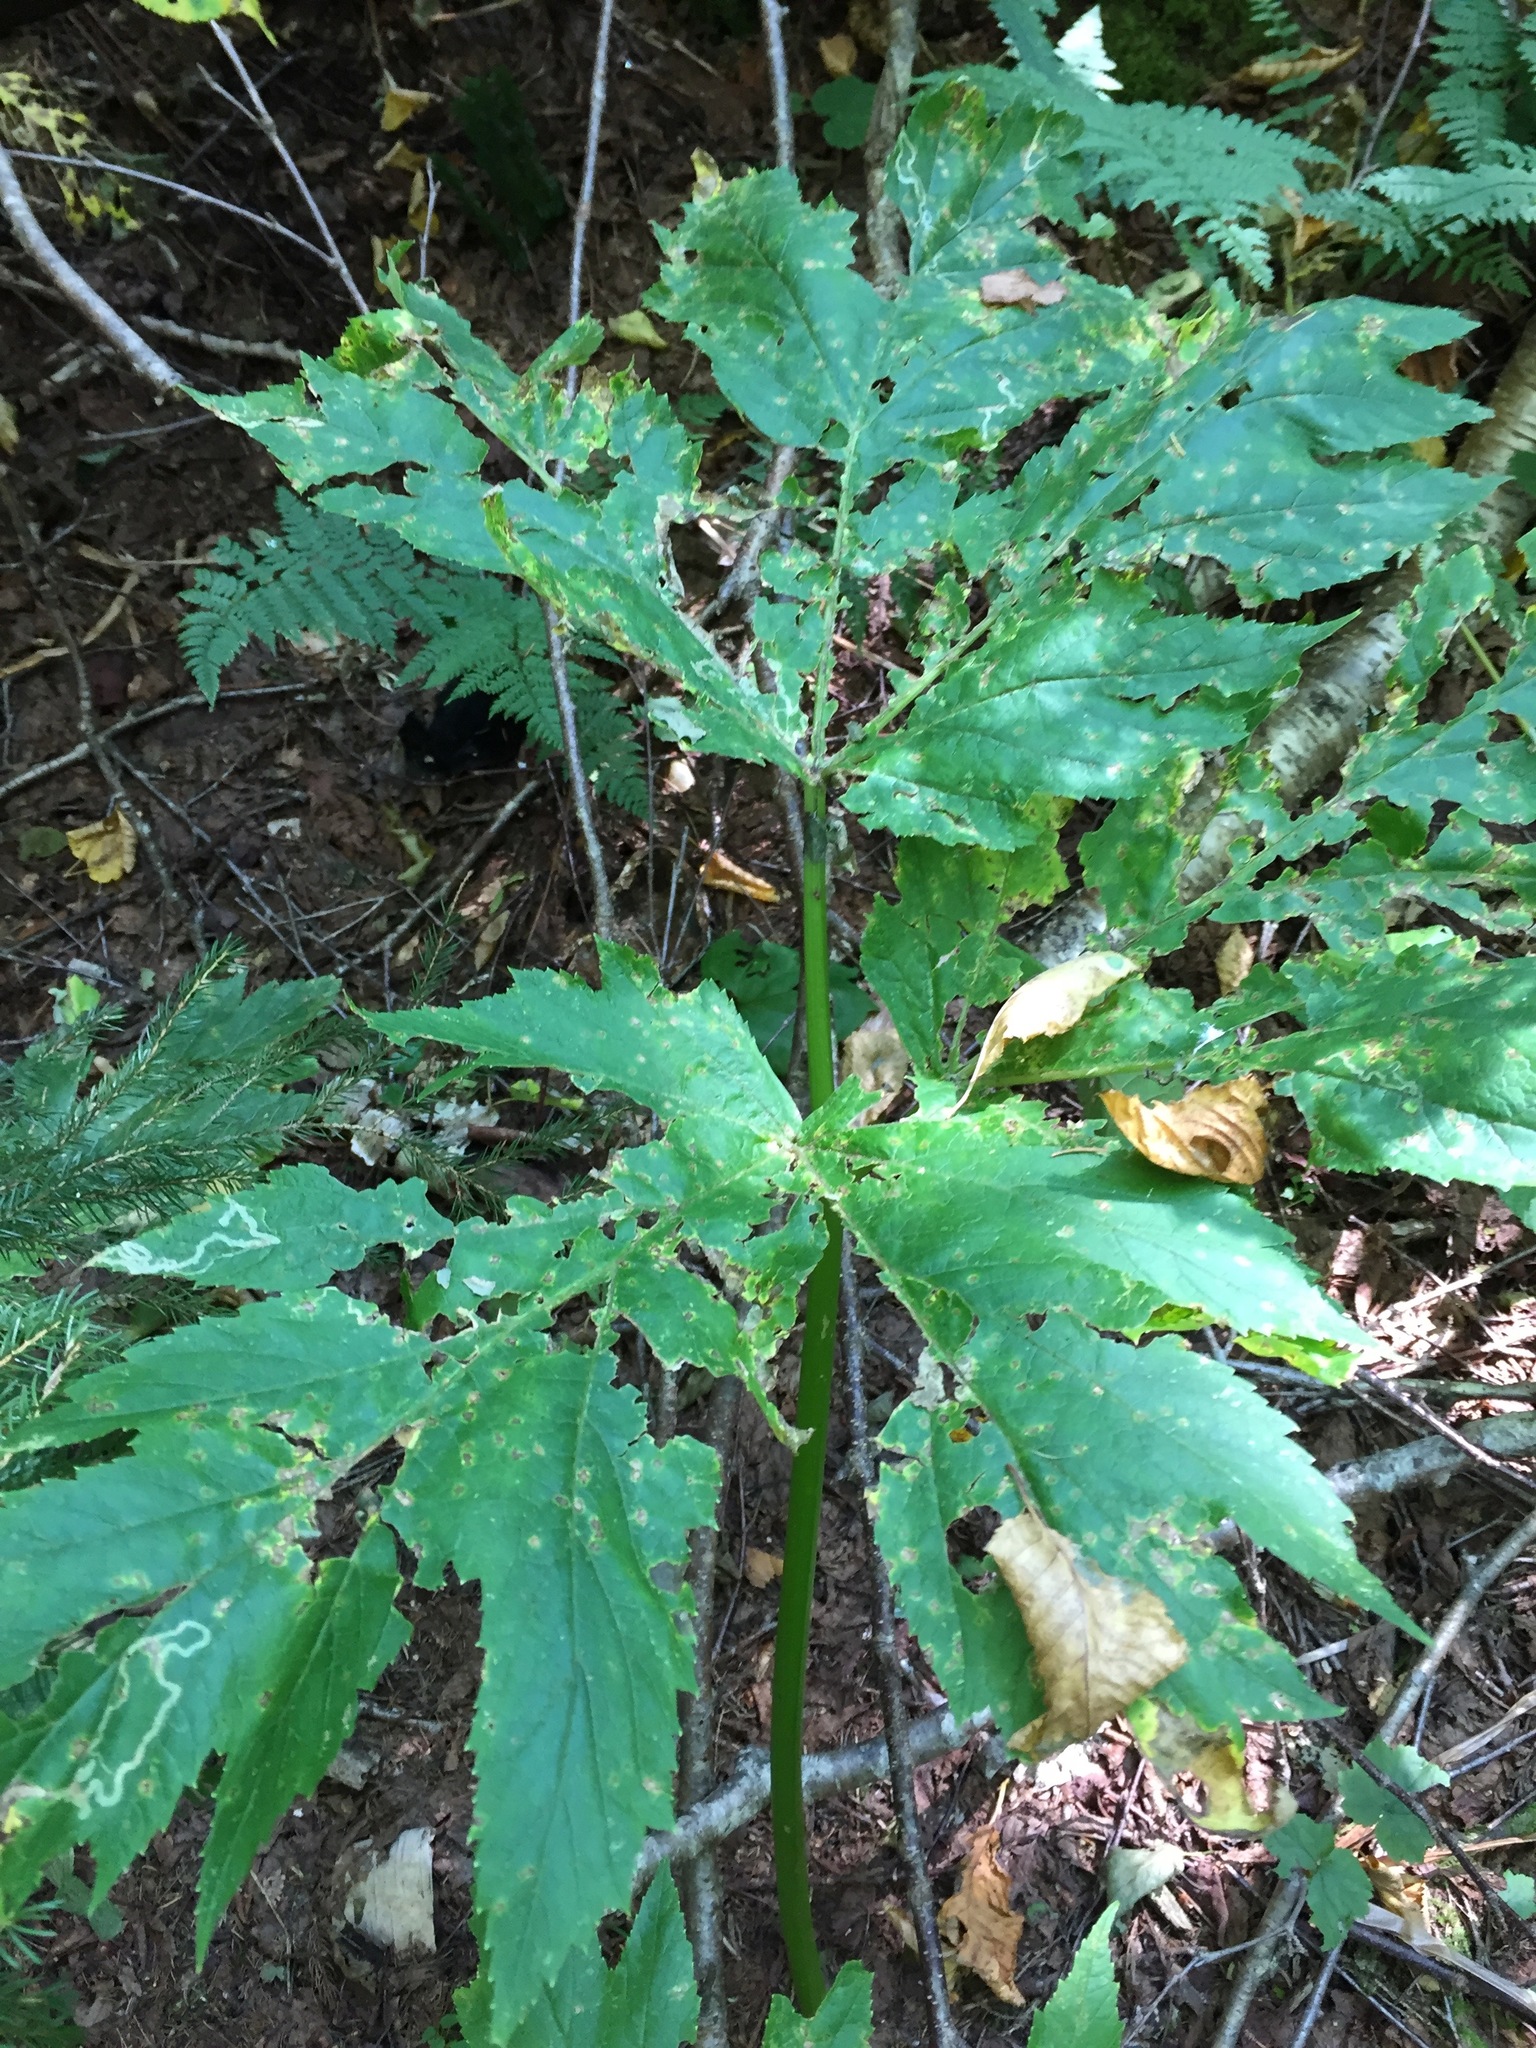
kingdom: Plantae
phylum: Tracheophyta
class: Magnoliopsida
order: Apiales
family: Apiaceae
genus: Heracleum
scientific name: Heracleum maximum
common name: American cow parsnip
